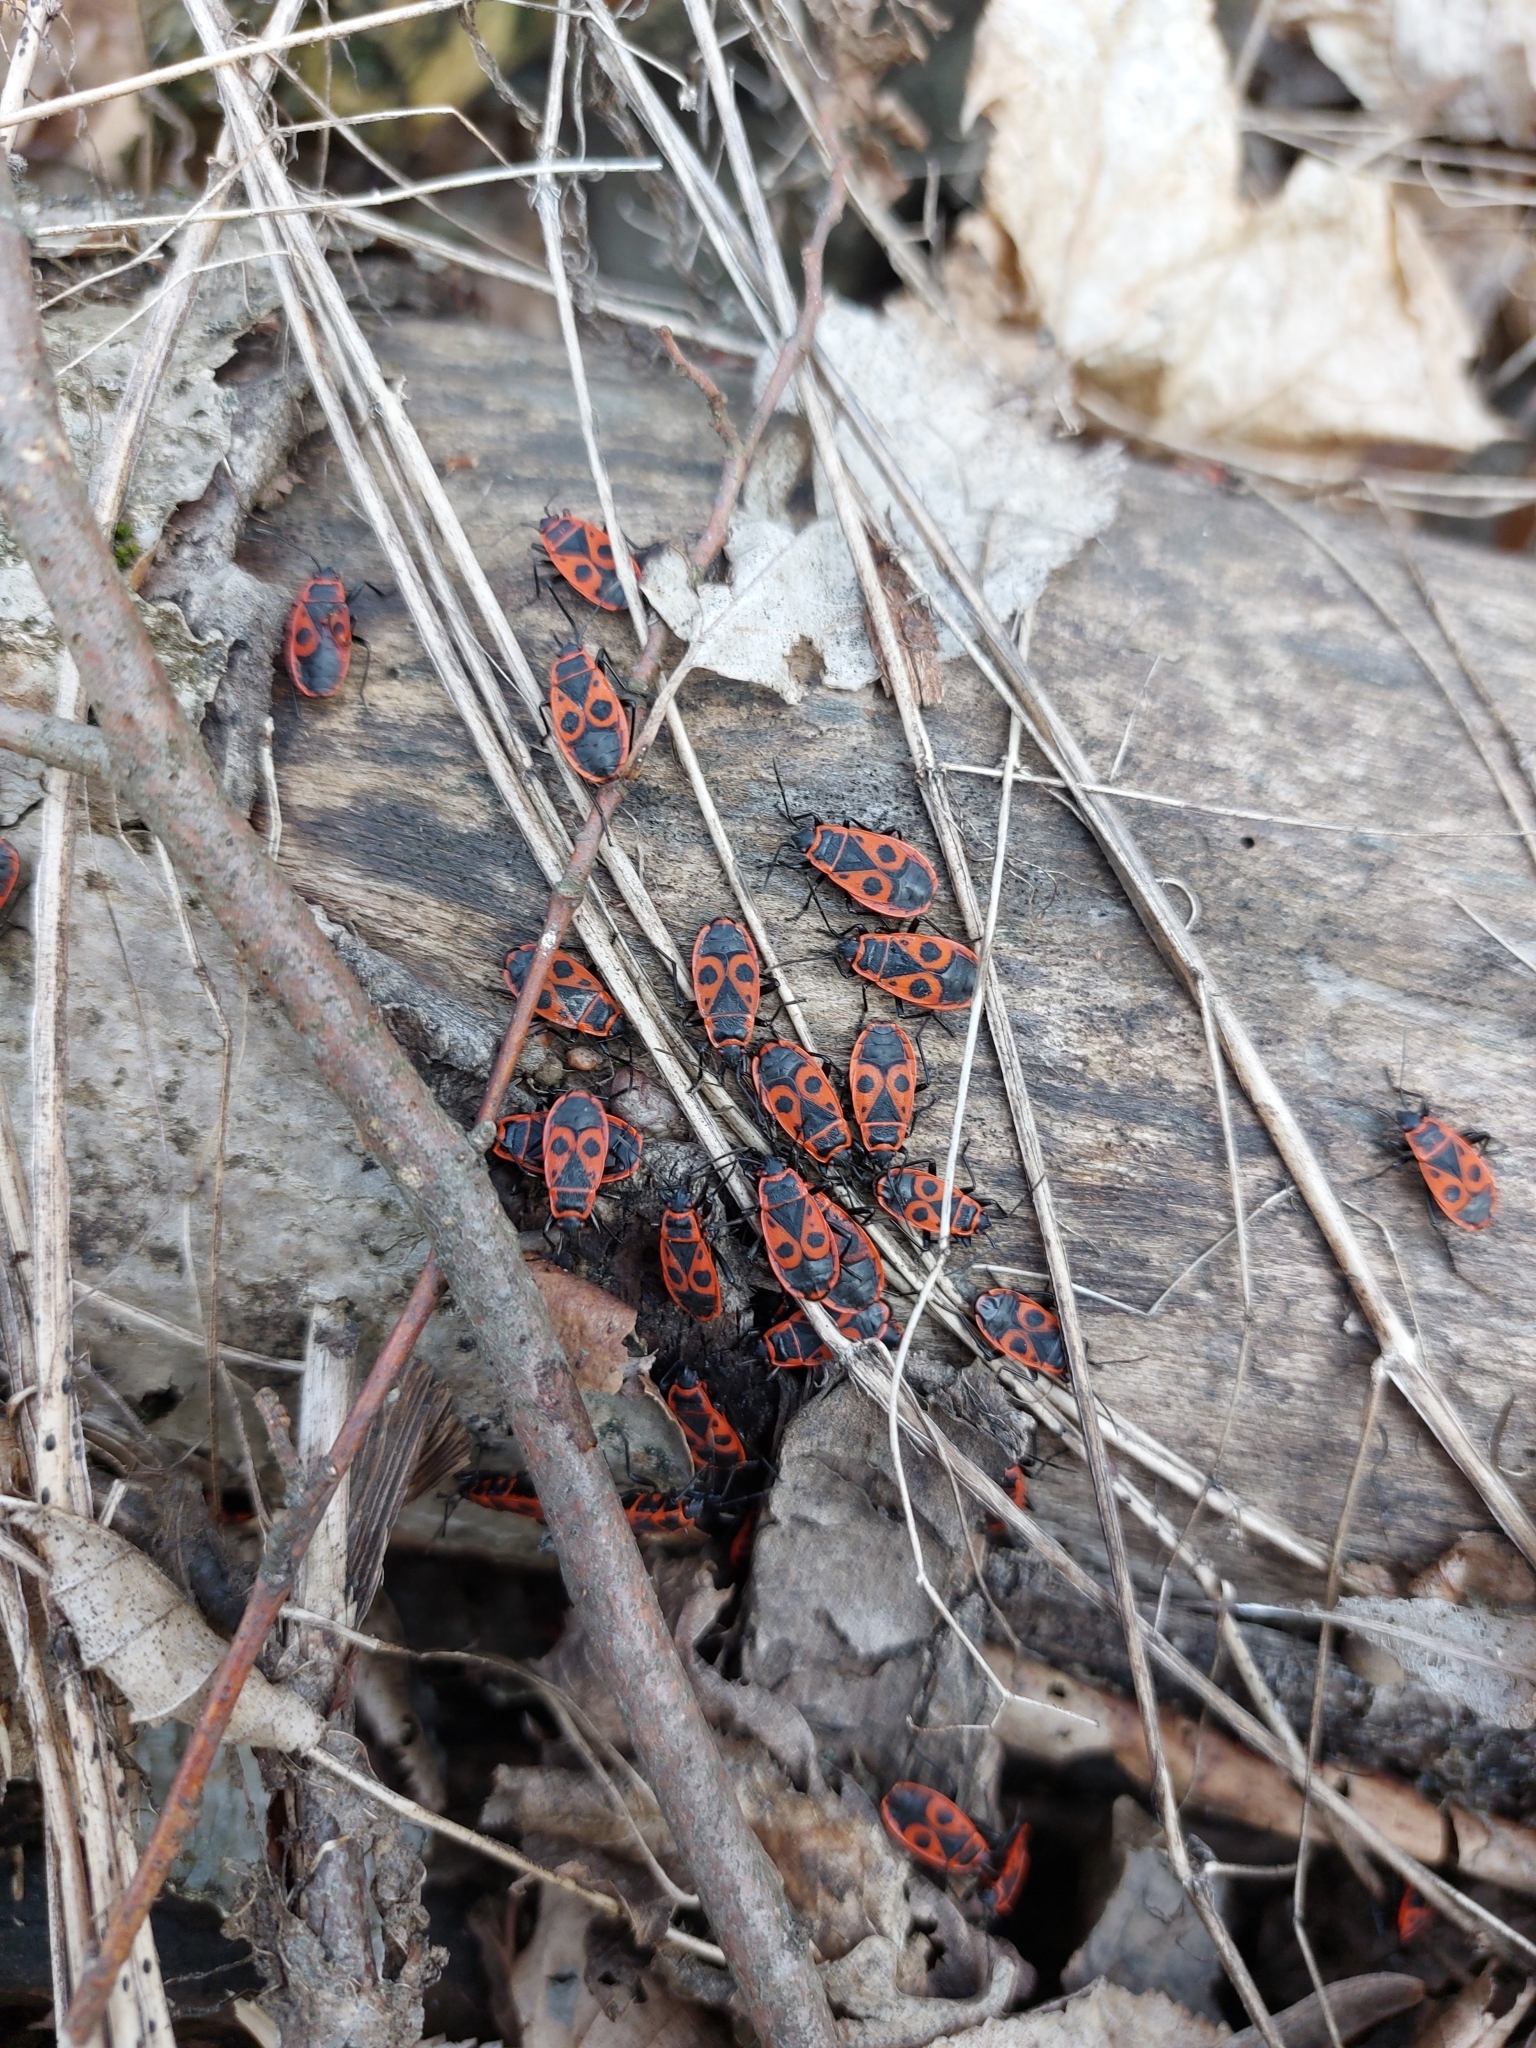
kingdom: Animalia
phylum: Arthropoda
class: Insecta
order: Hemiptera
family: Pyrrhocoridae
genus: Pyrrhocoris
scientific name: Pyrrhocoris apterus
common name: Firebug
